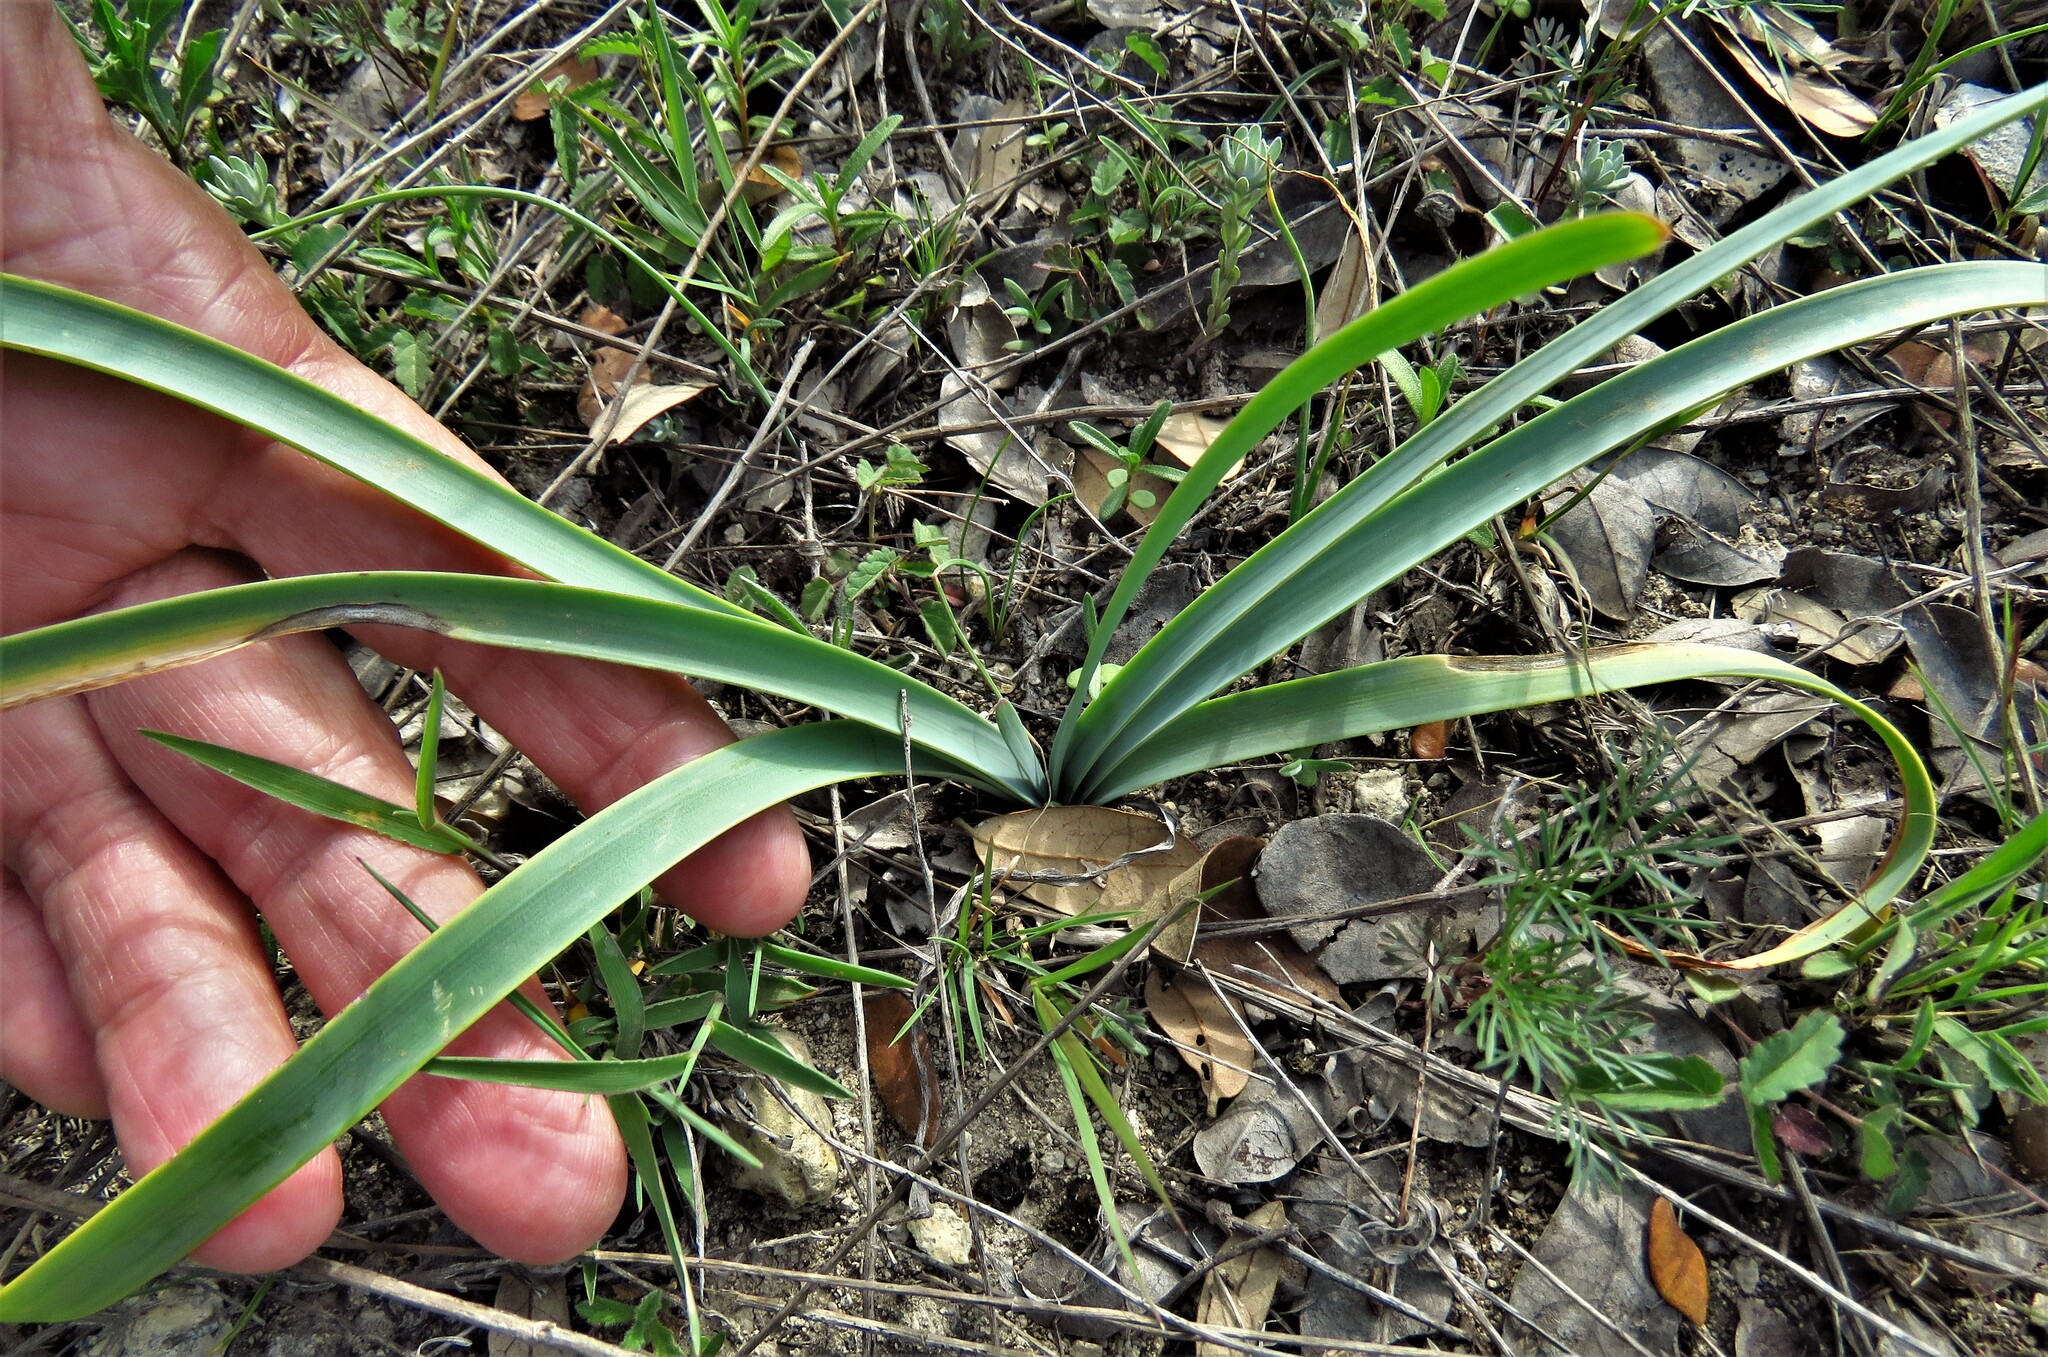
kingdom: Plantae
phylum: Tracheophyta
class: Liliopsida
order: Asparagales
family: Amaryllidaceae
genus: Zephyranthes
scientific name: Zephyranthes drummondii
